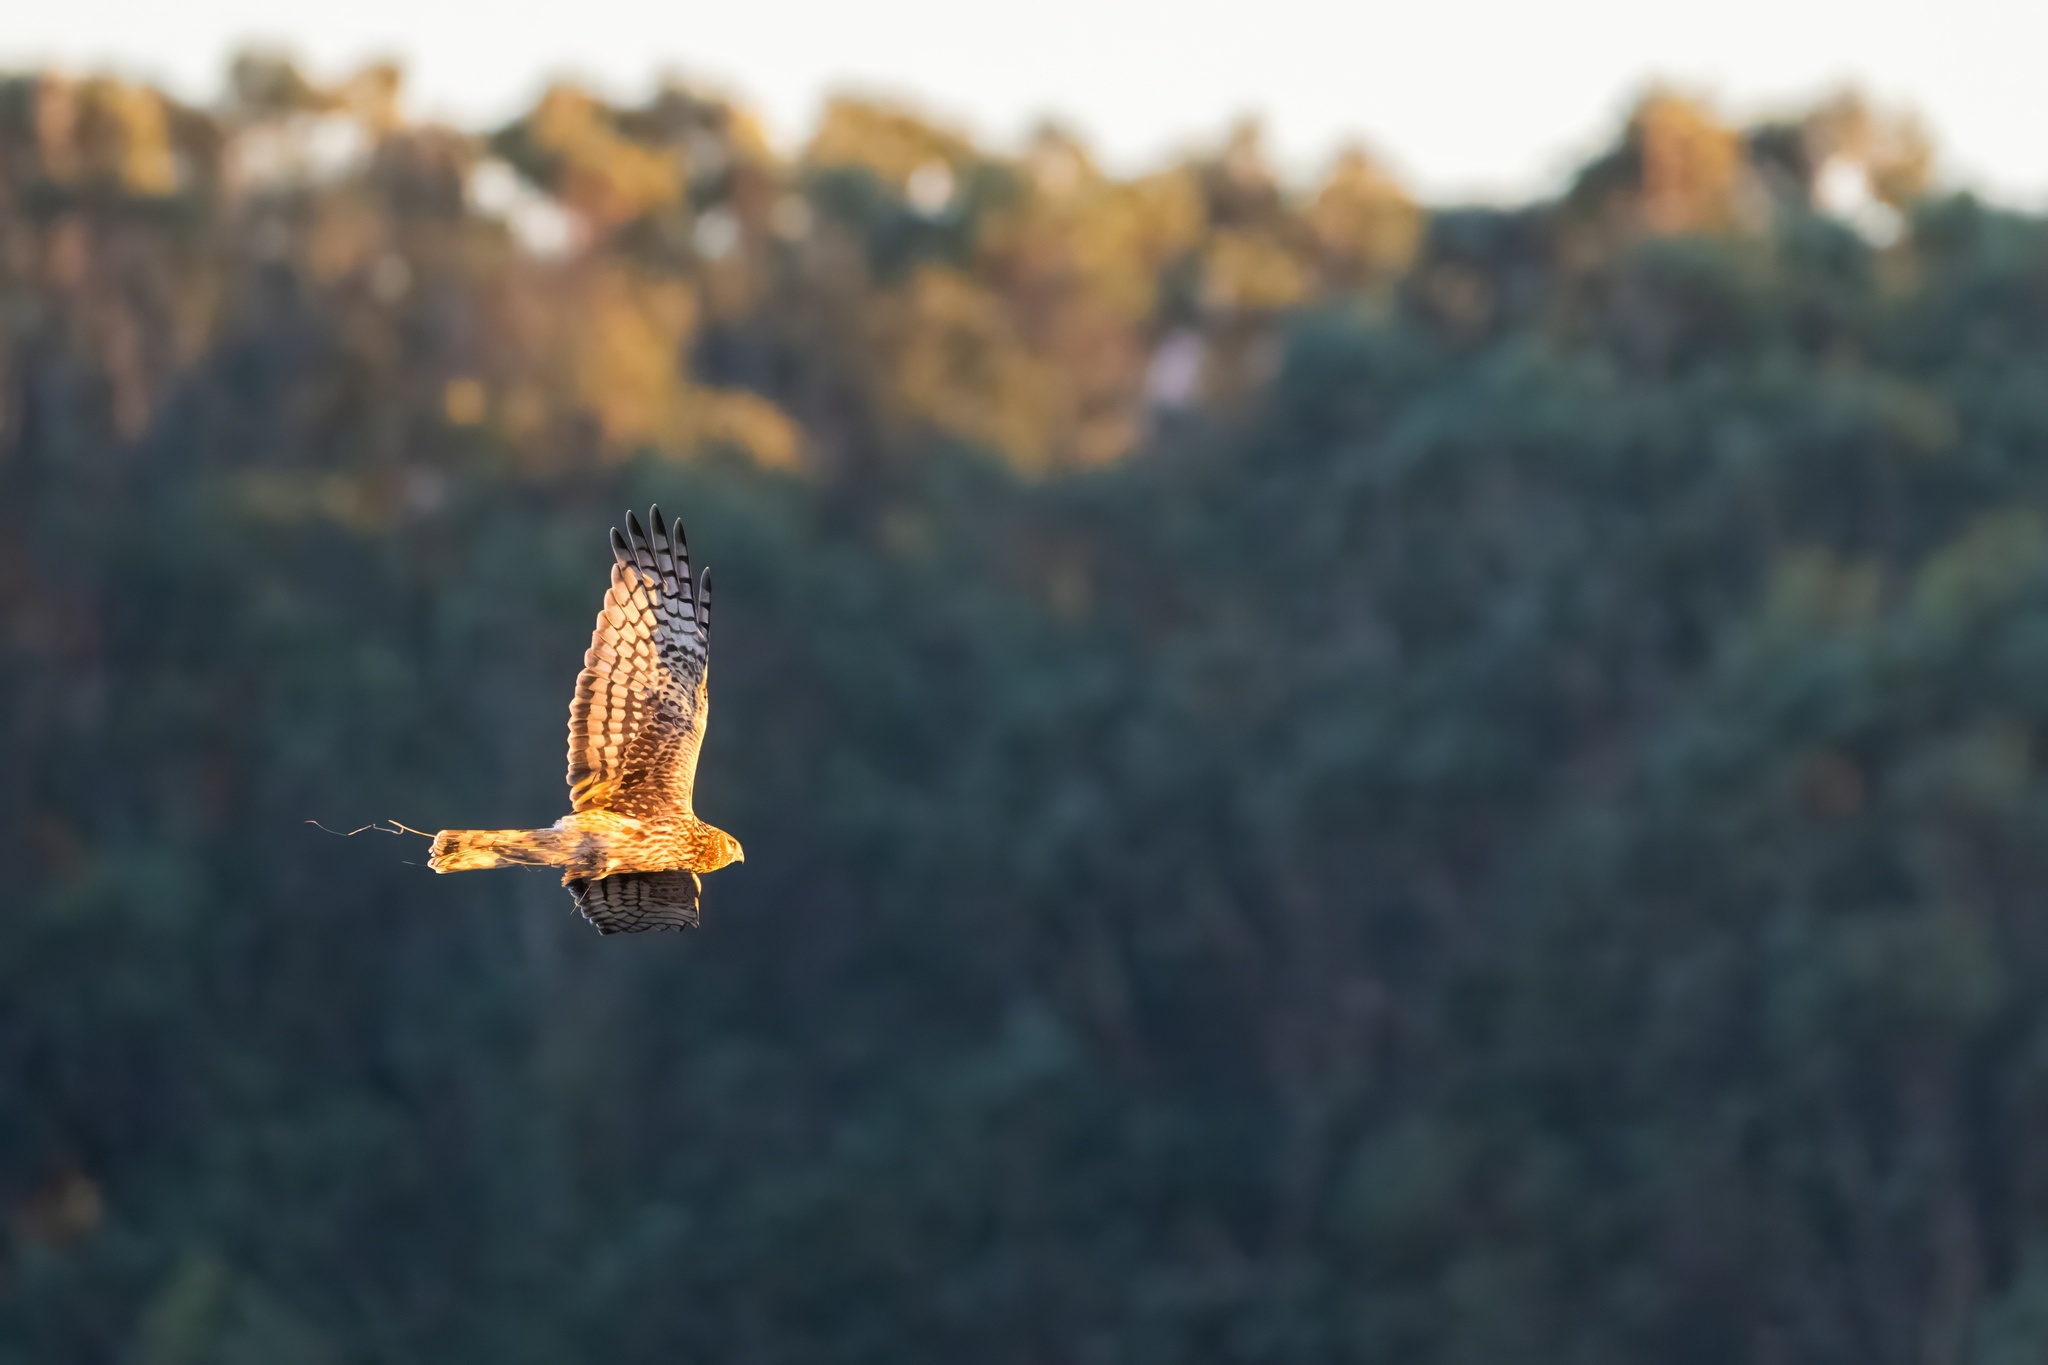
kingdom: Animalia
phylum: Chordata
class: Aves
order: Accipitriformes
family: Accipitridae
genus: Circus
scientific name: Circus cyaneus
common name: Hen harrier
